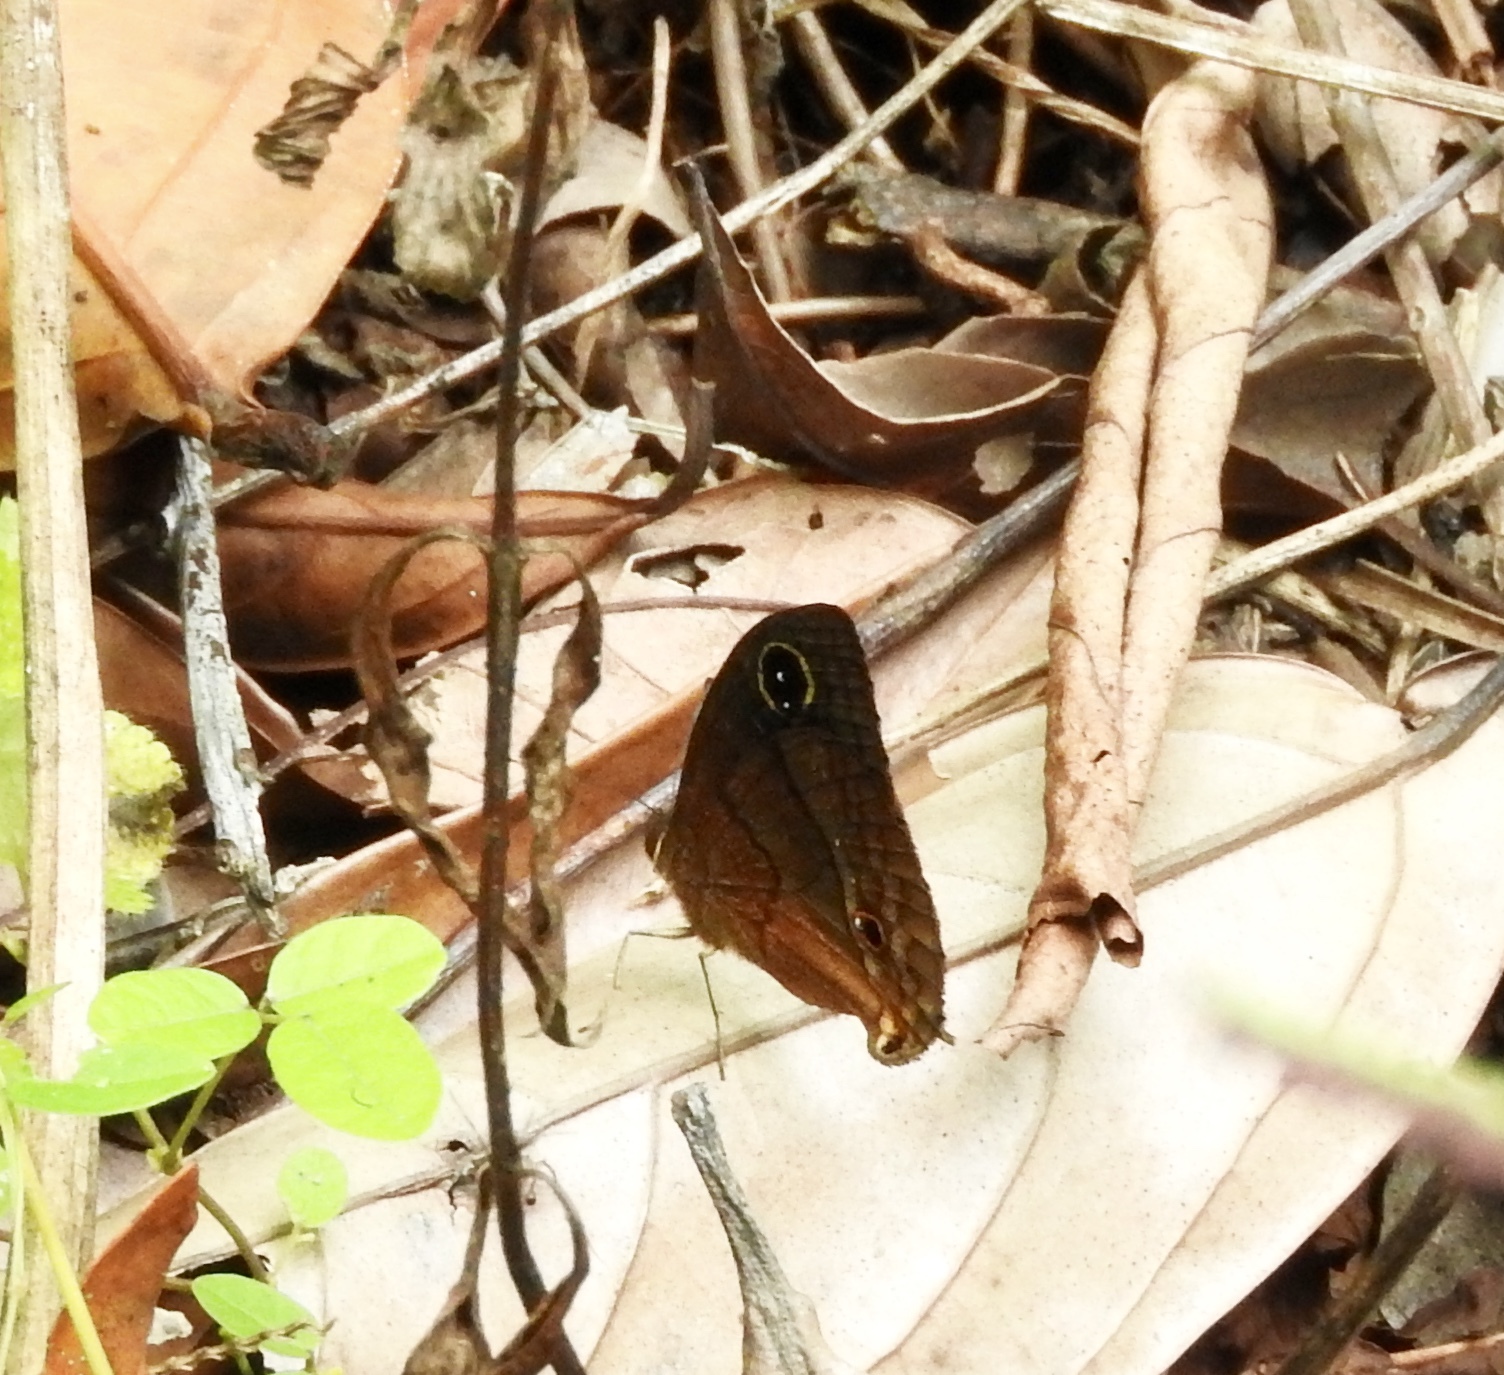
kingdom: Animalia
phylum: Arthropoda
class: Insecta
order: Lepidoptera
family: Nymphalidae
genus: Calisto
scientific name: Calisto zangis
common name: Jamaican satyr
